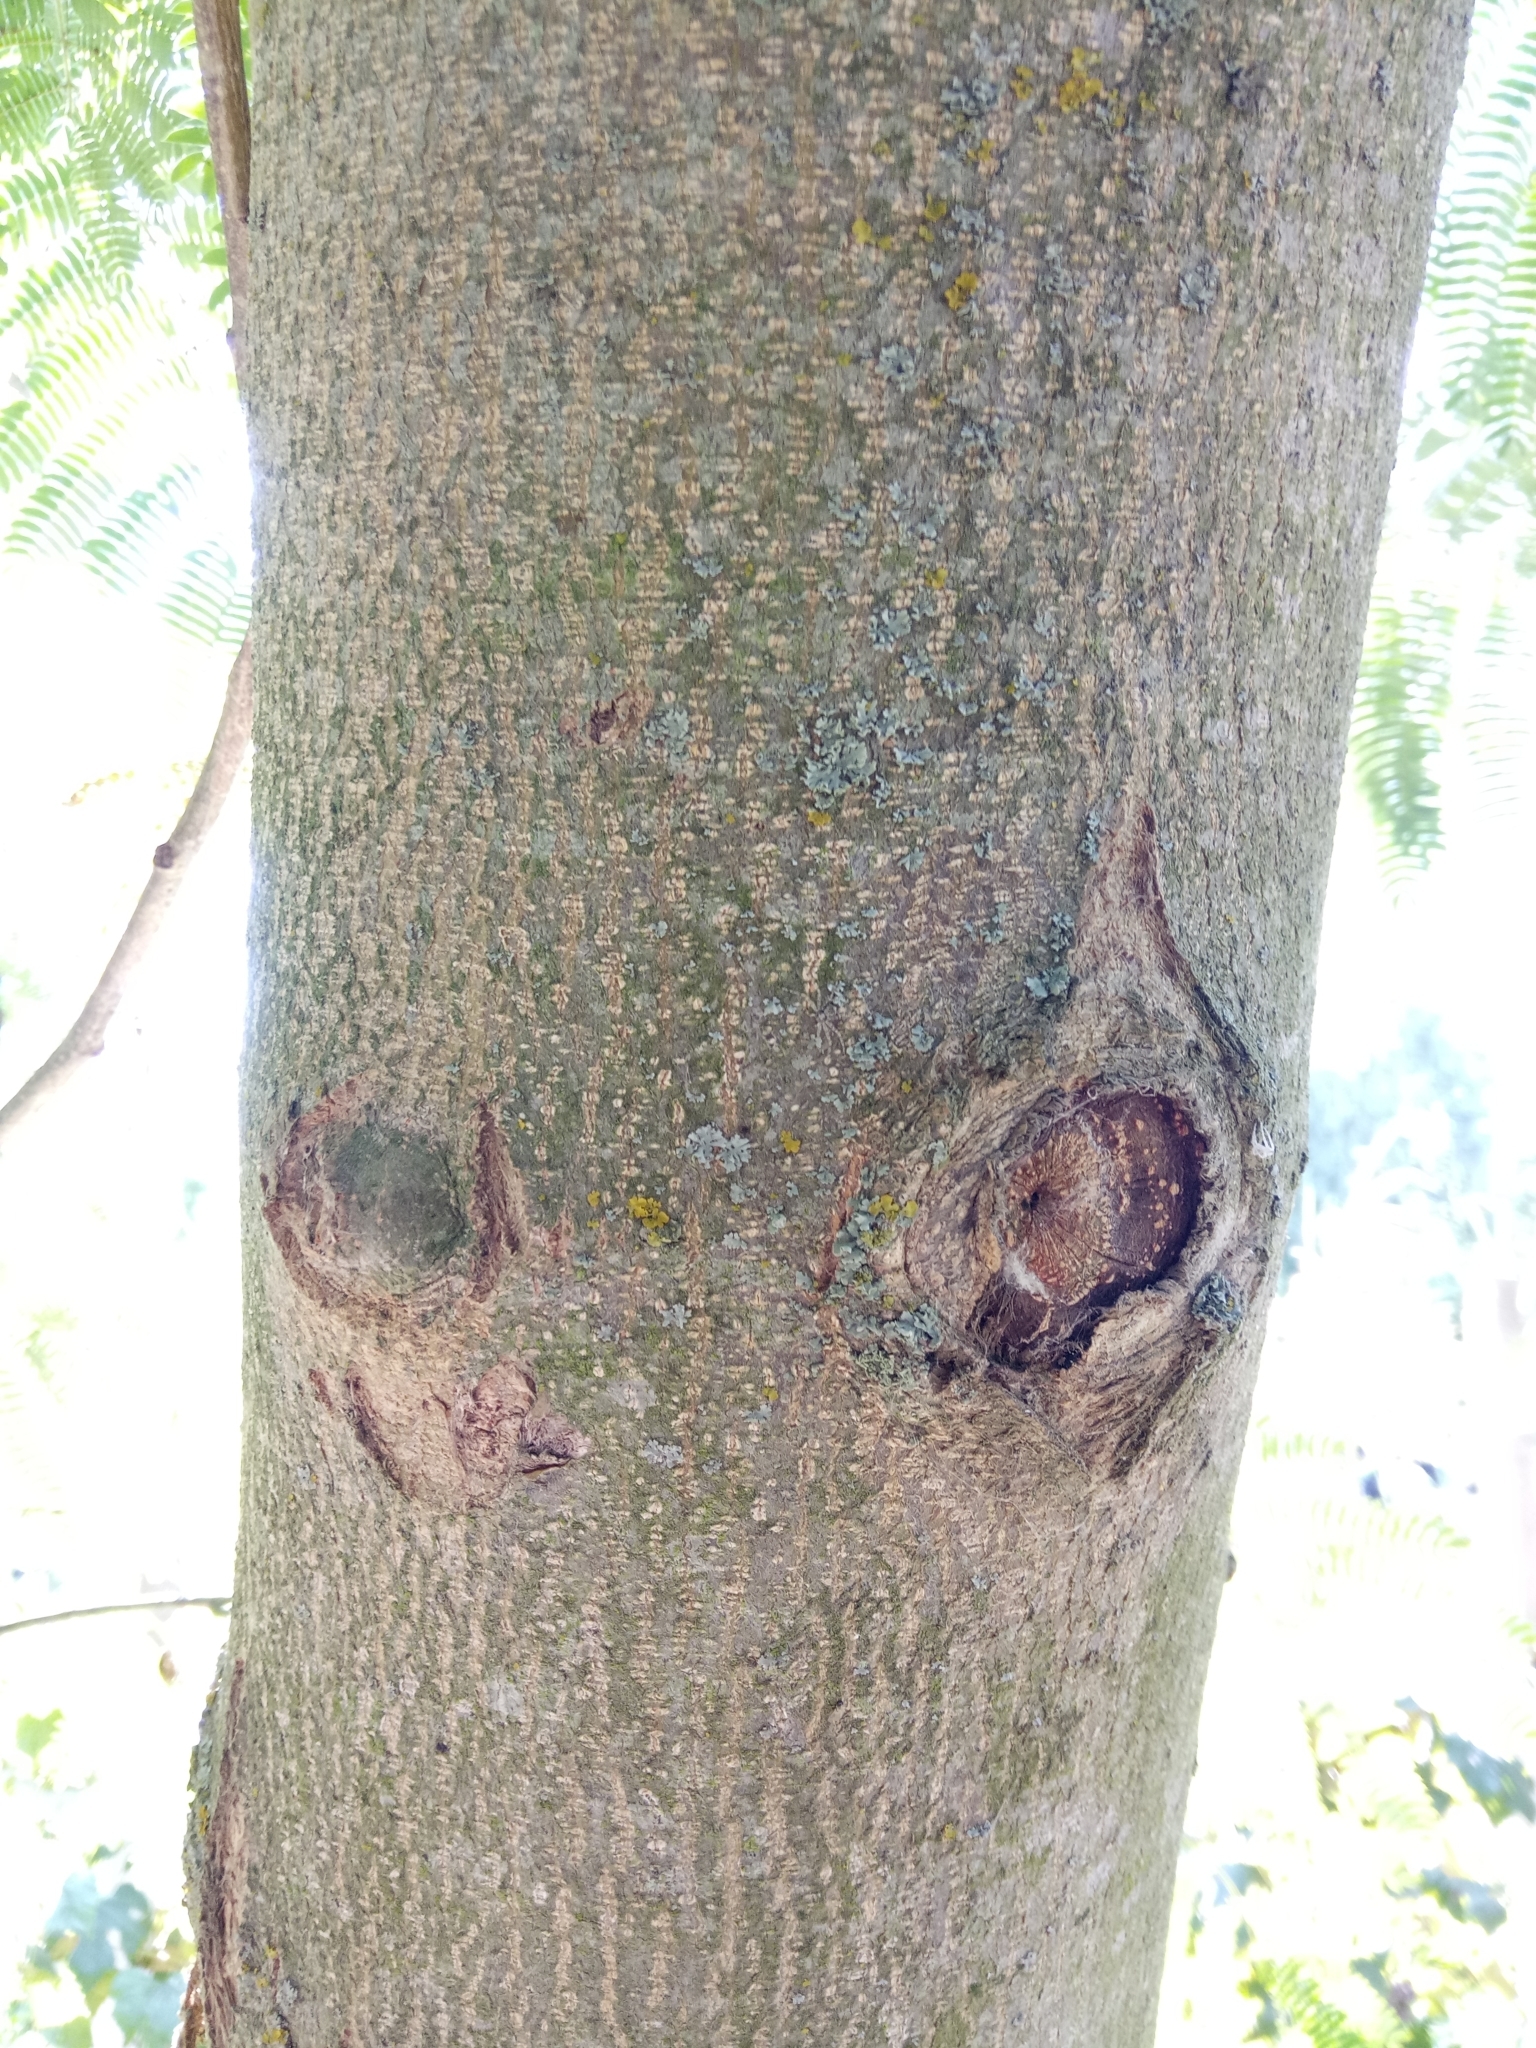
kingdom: Plantae
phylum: Tracheophyta
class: Magnoliopsida
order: Fabales
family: Fabaceae
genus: Albizia
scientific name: Albizia julibrissin
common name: Silktree
